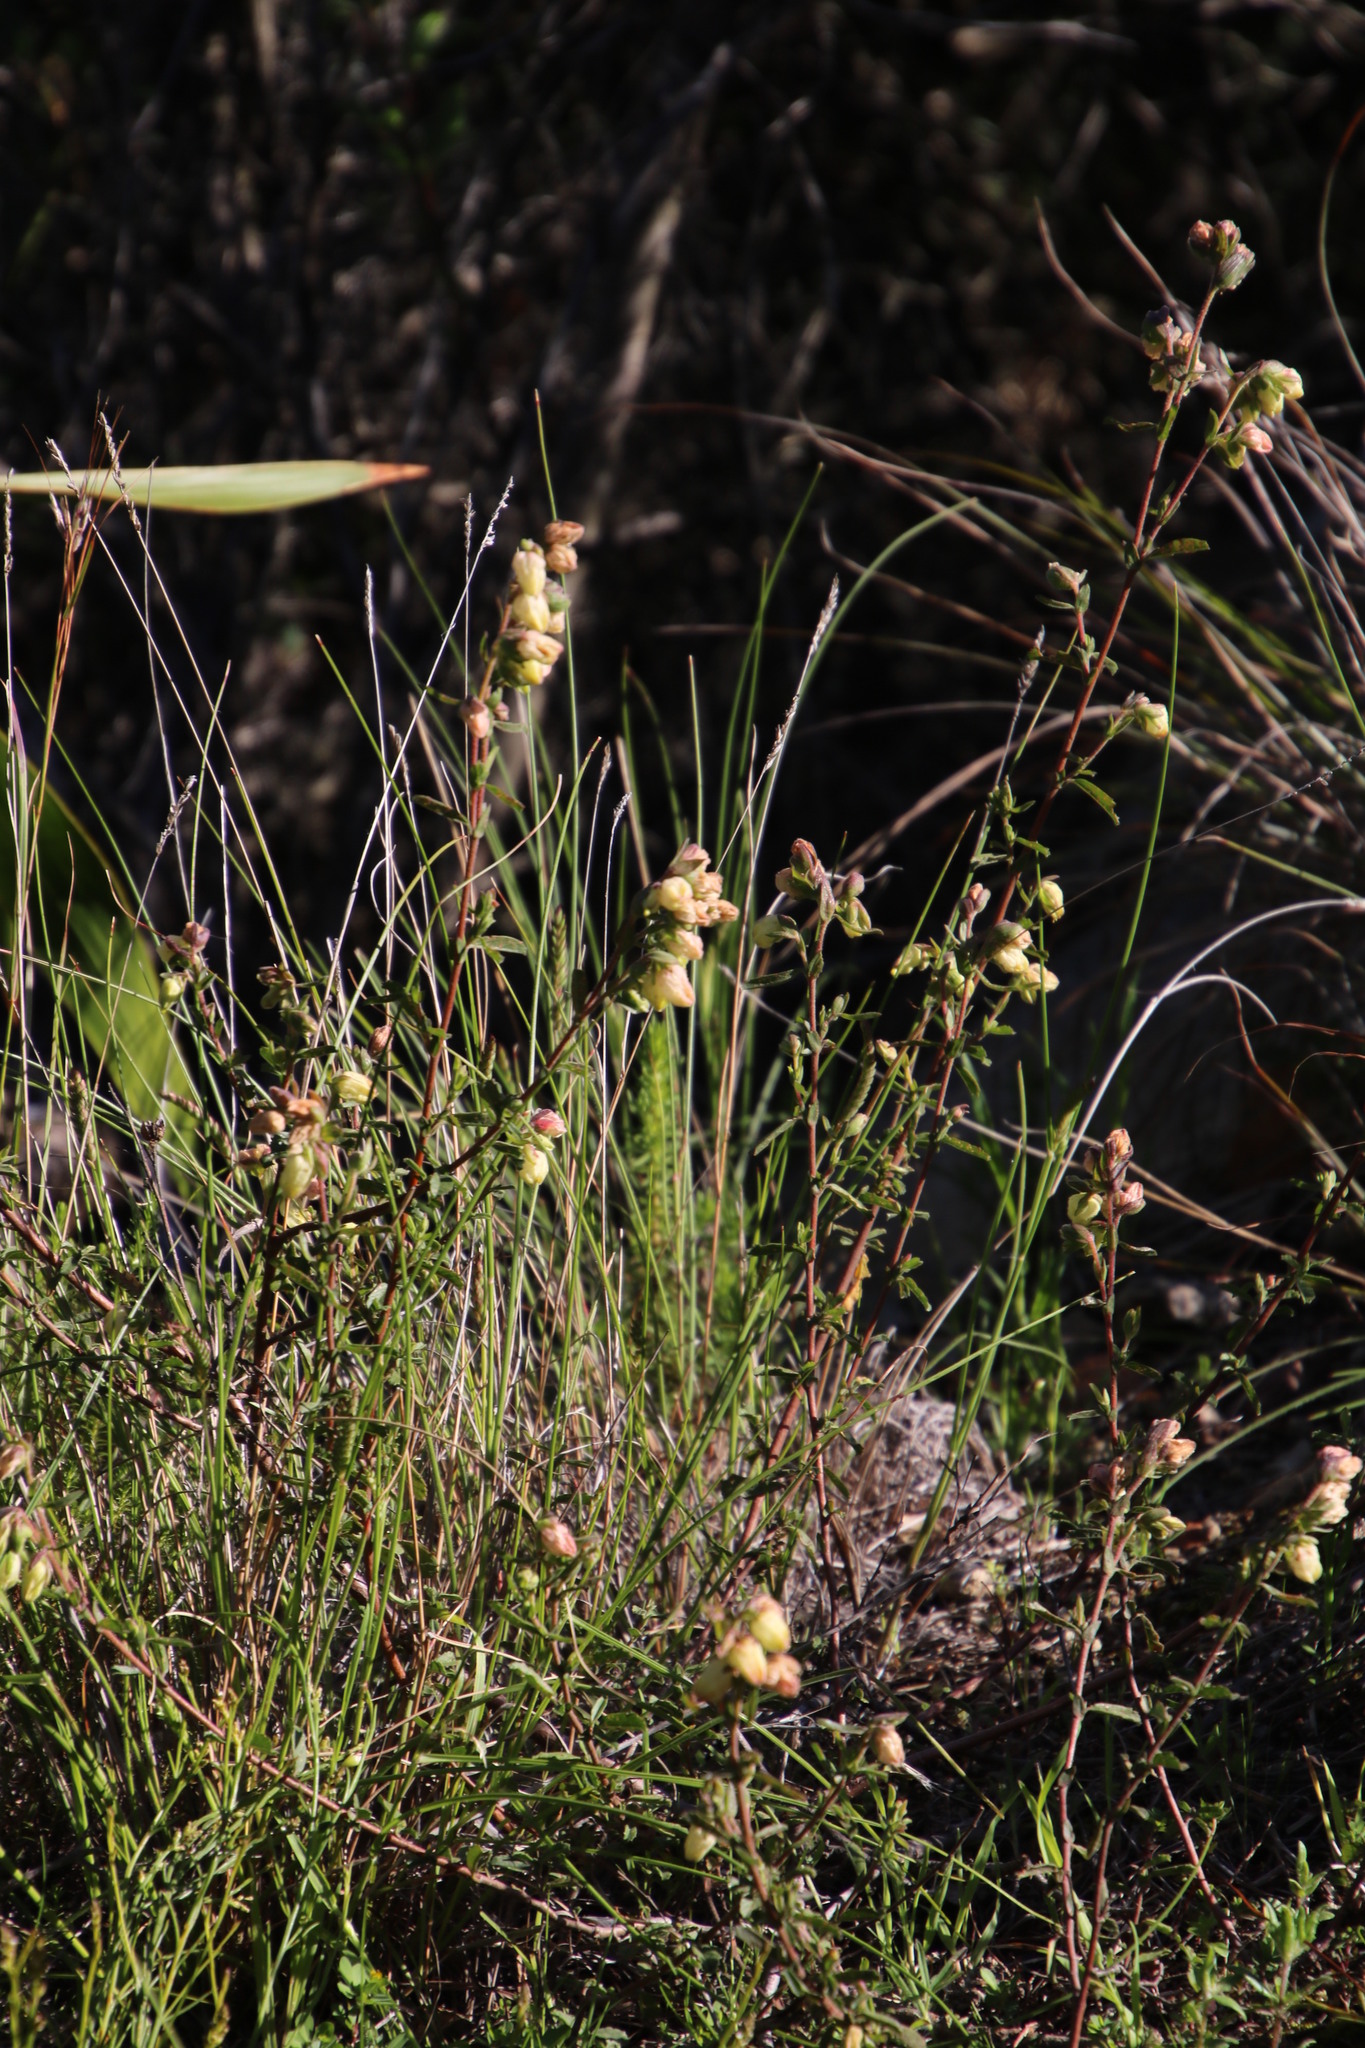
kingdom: Plantae
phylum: Tracheophyta
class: Magnoliopsida
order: Malvales
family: Malvaceae
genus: Hermannia
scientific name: Hermannia hyssopifolia
